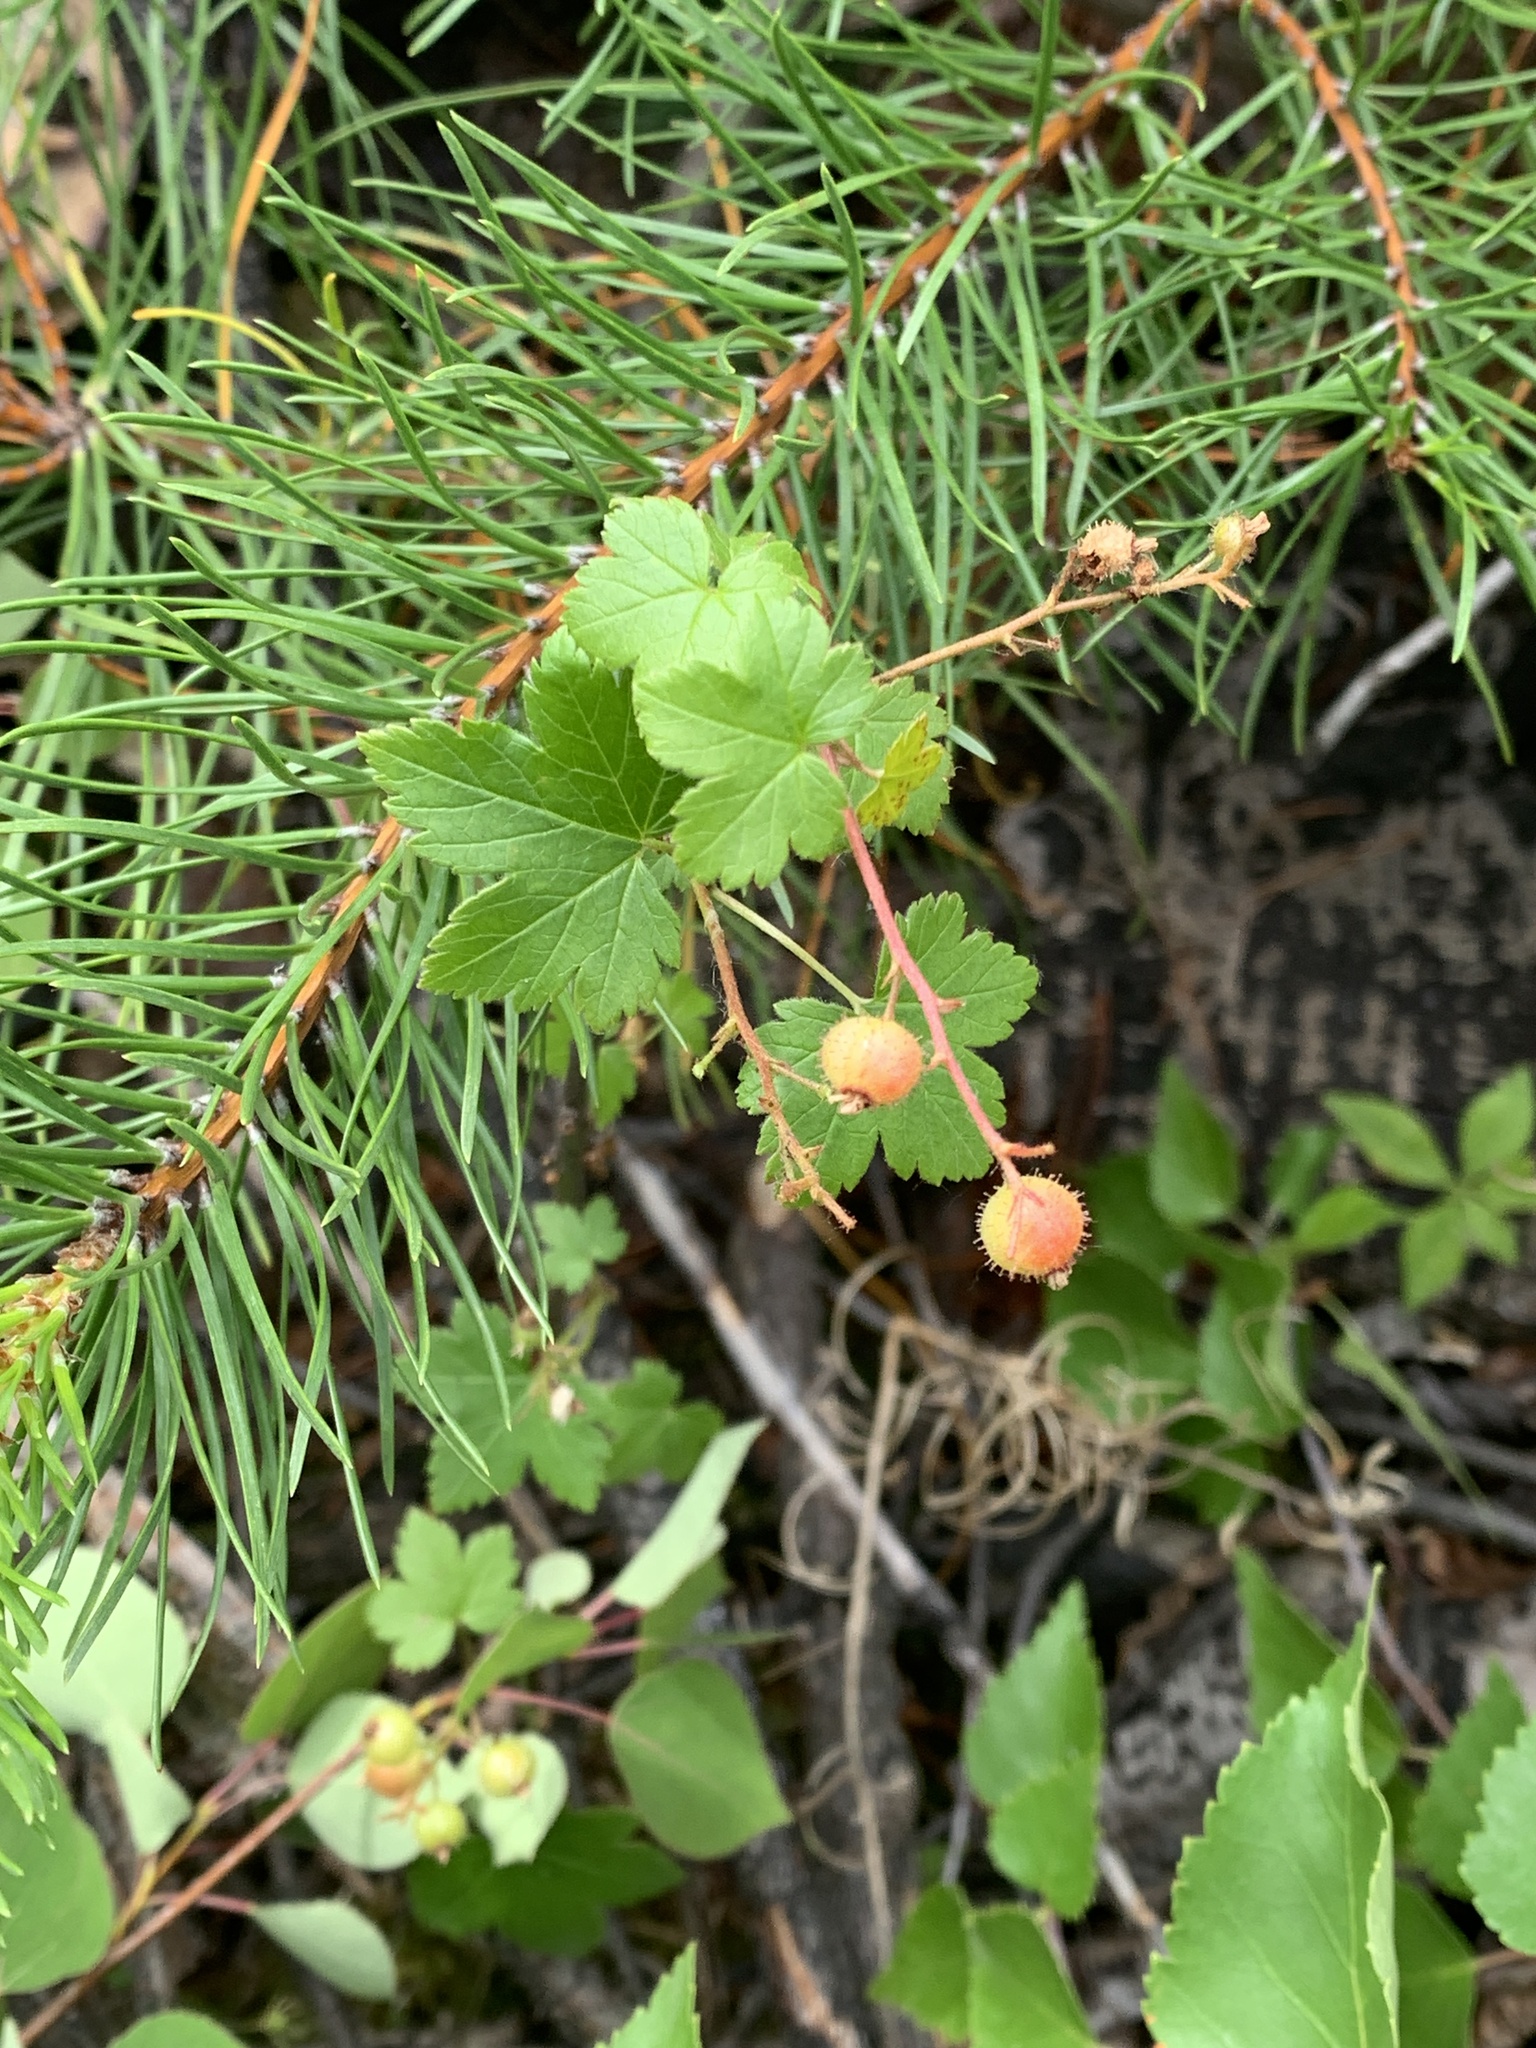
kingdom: Plantae
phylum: Tracheophyta
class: Magnoliopsida
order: Saxifragales
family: Grossulariaceae
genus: Ribes
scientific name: Ribes glandulosum
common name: Skunk currant
